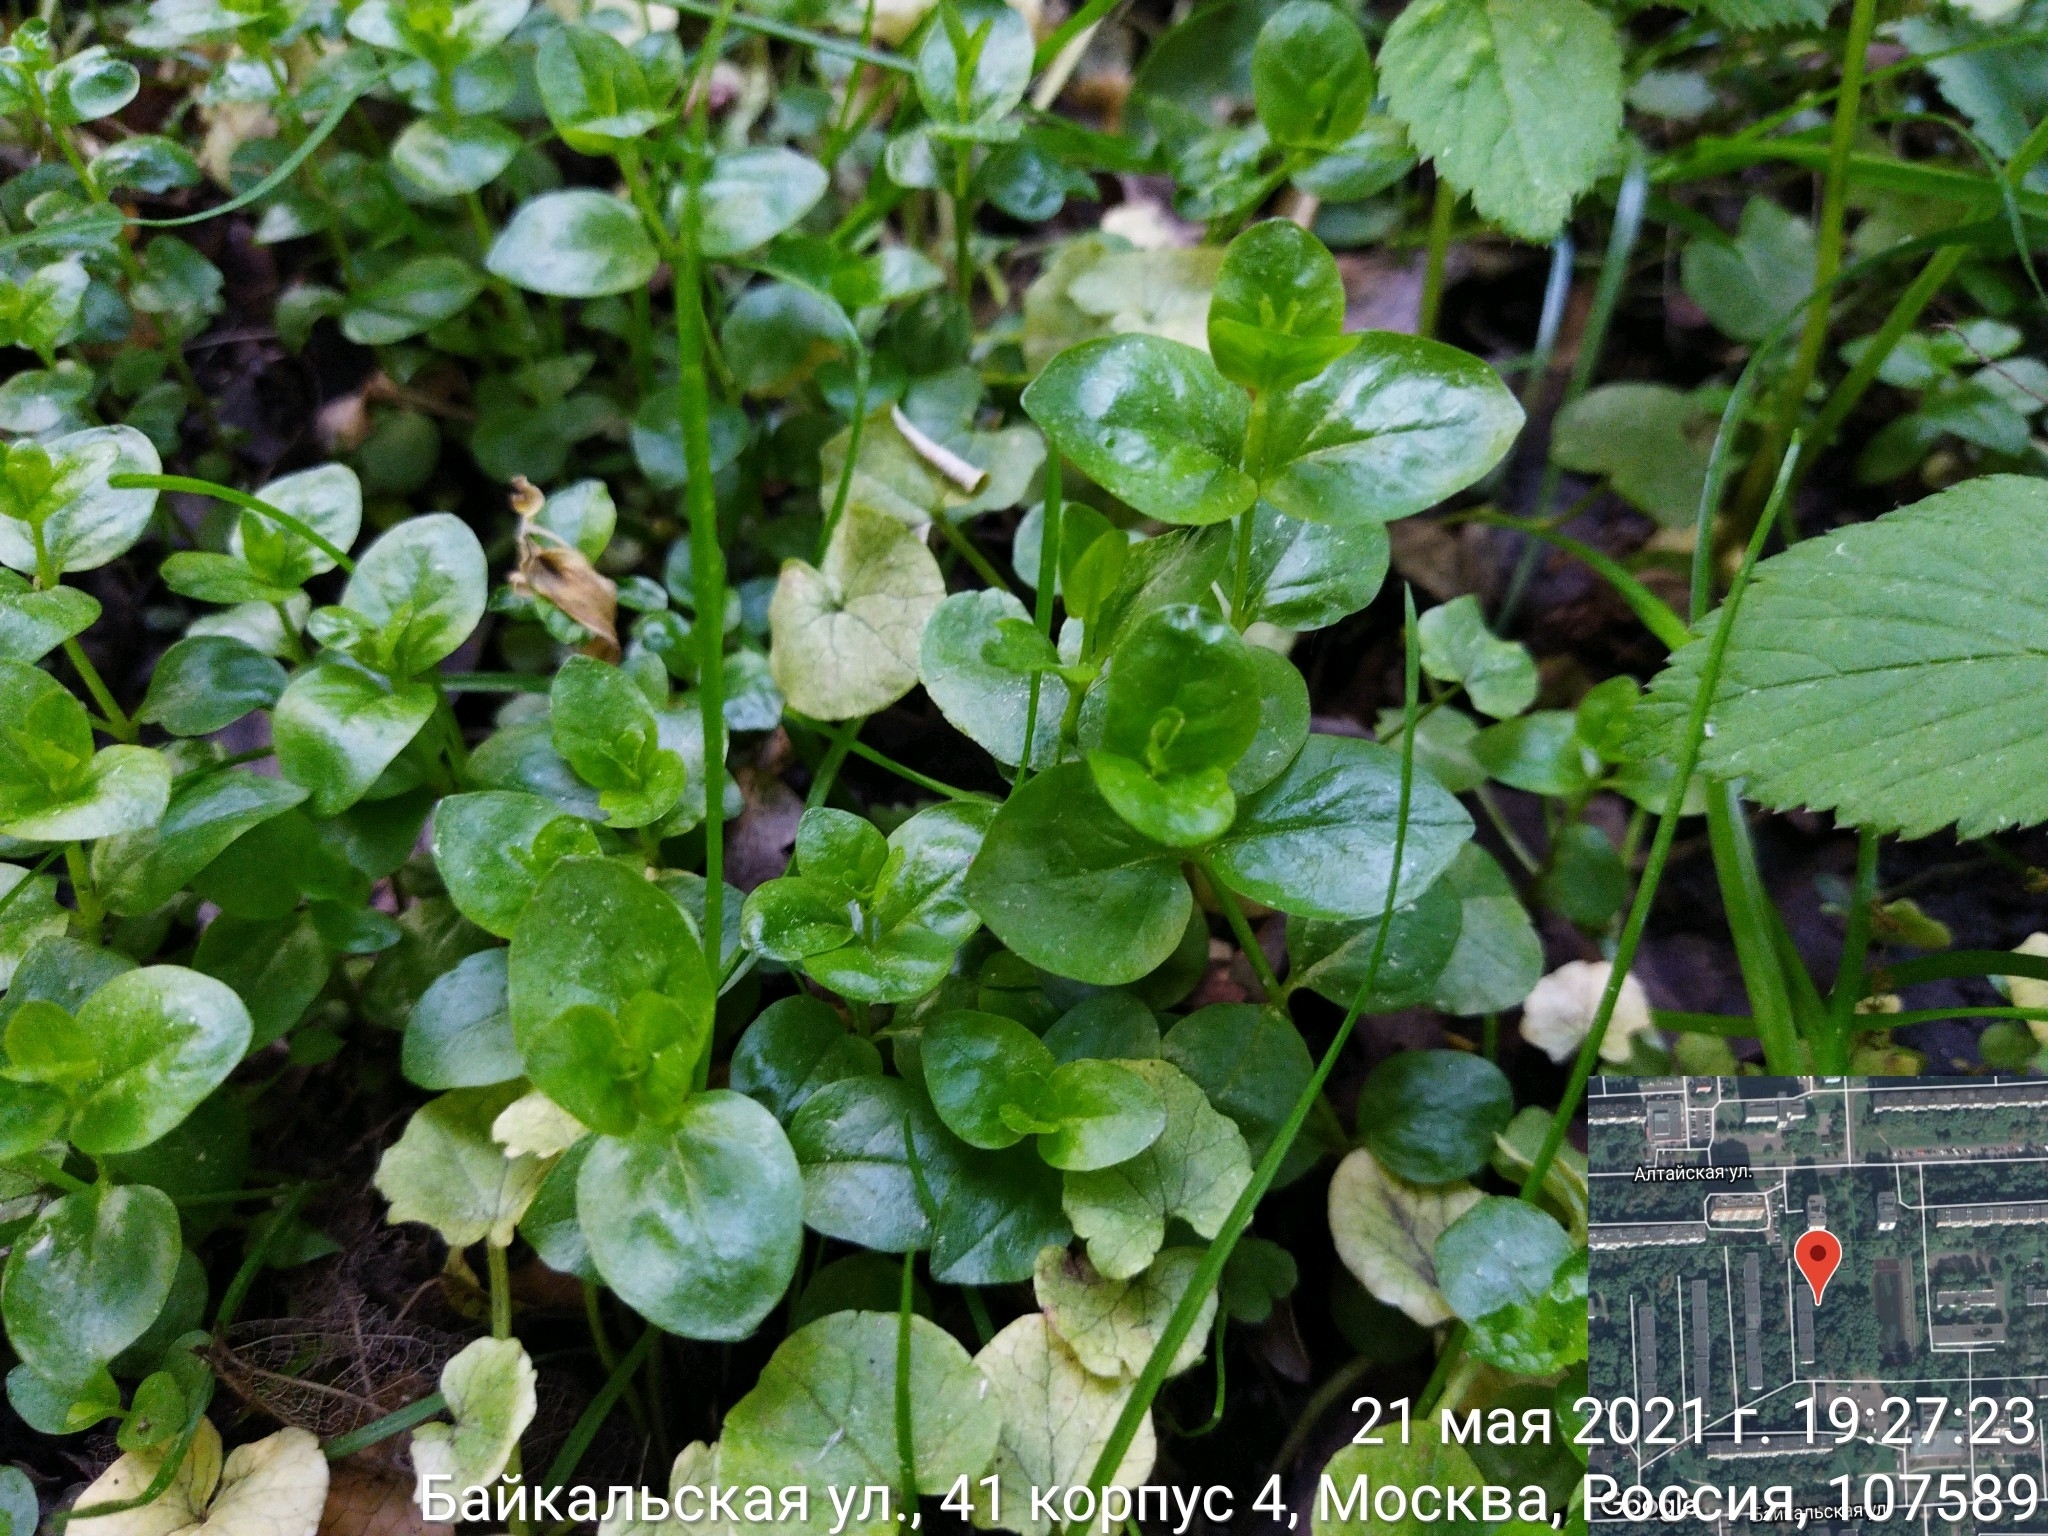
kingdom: Plantae
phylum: Tracheophyta
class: Magnoliopsida
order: Ericales
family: Primulaceae
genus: Lysimachia
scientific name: Lysimachia nummularia
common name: Moneywort
